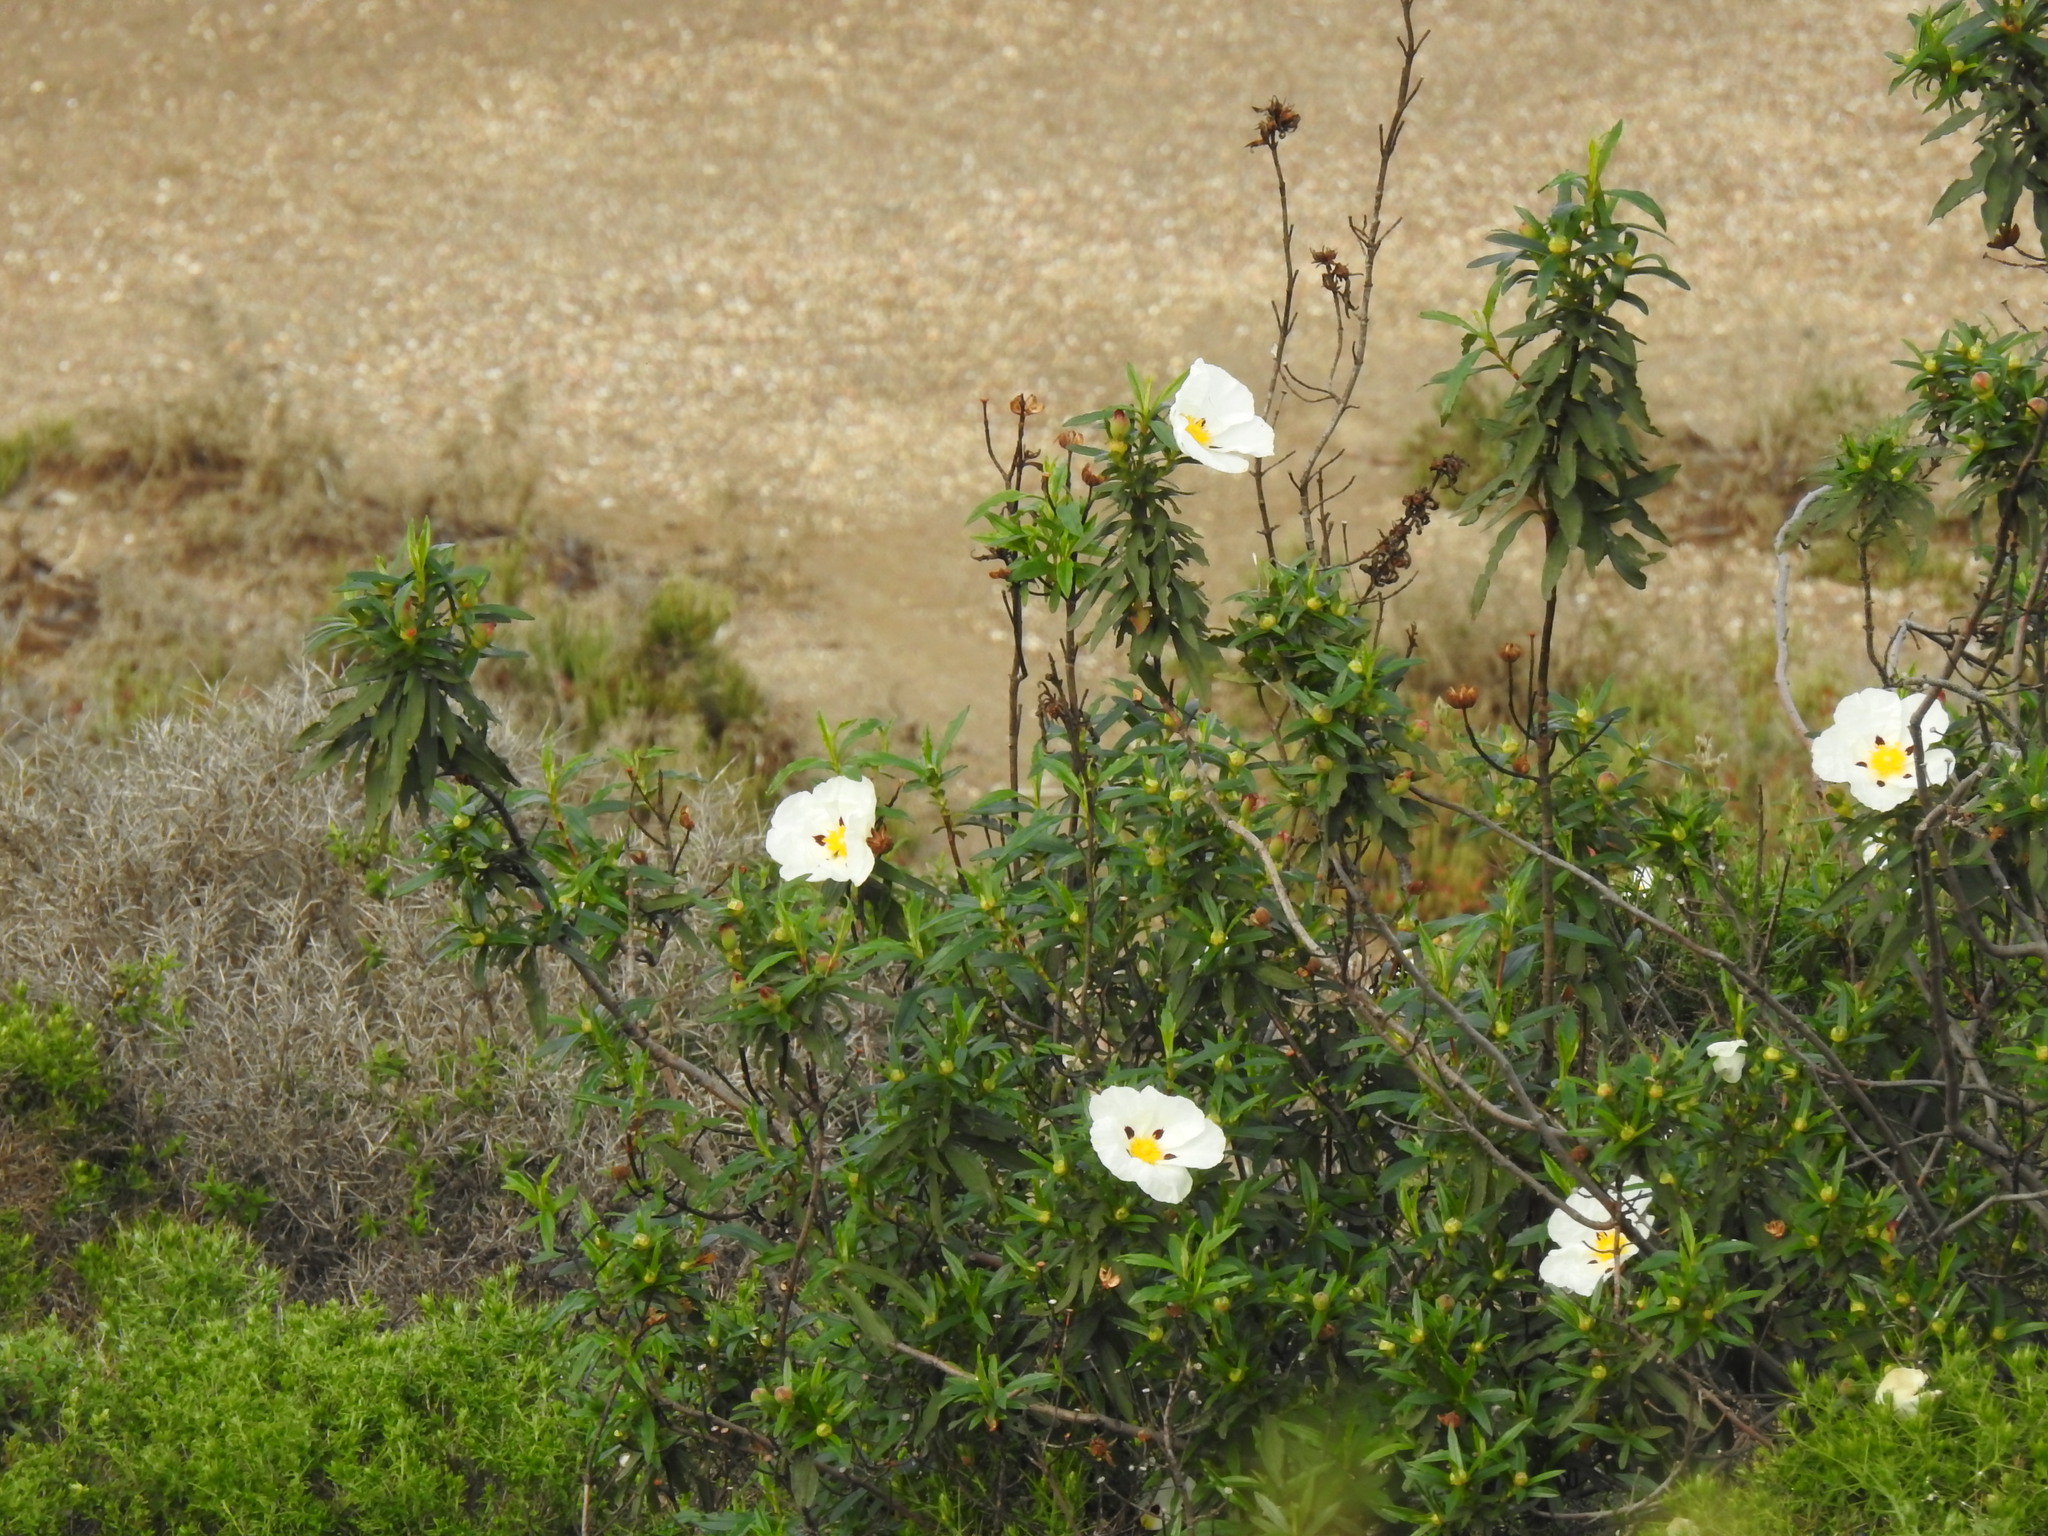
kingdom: Plantae
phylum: Tracheophyta
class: Magnoliopsida
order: Malvales
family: Cistaceae
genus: Cistus
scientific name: Cistus ladanifer
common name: Common gum cistus
